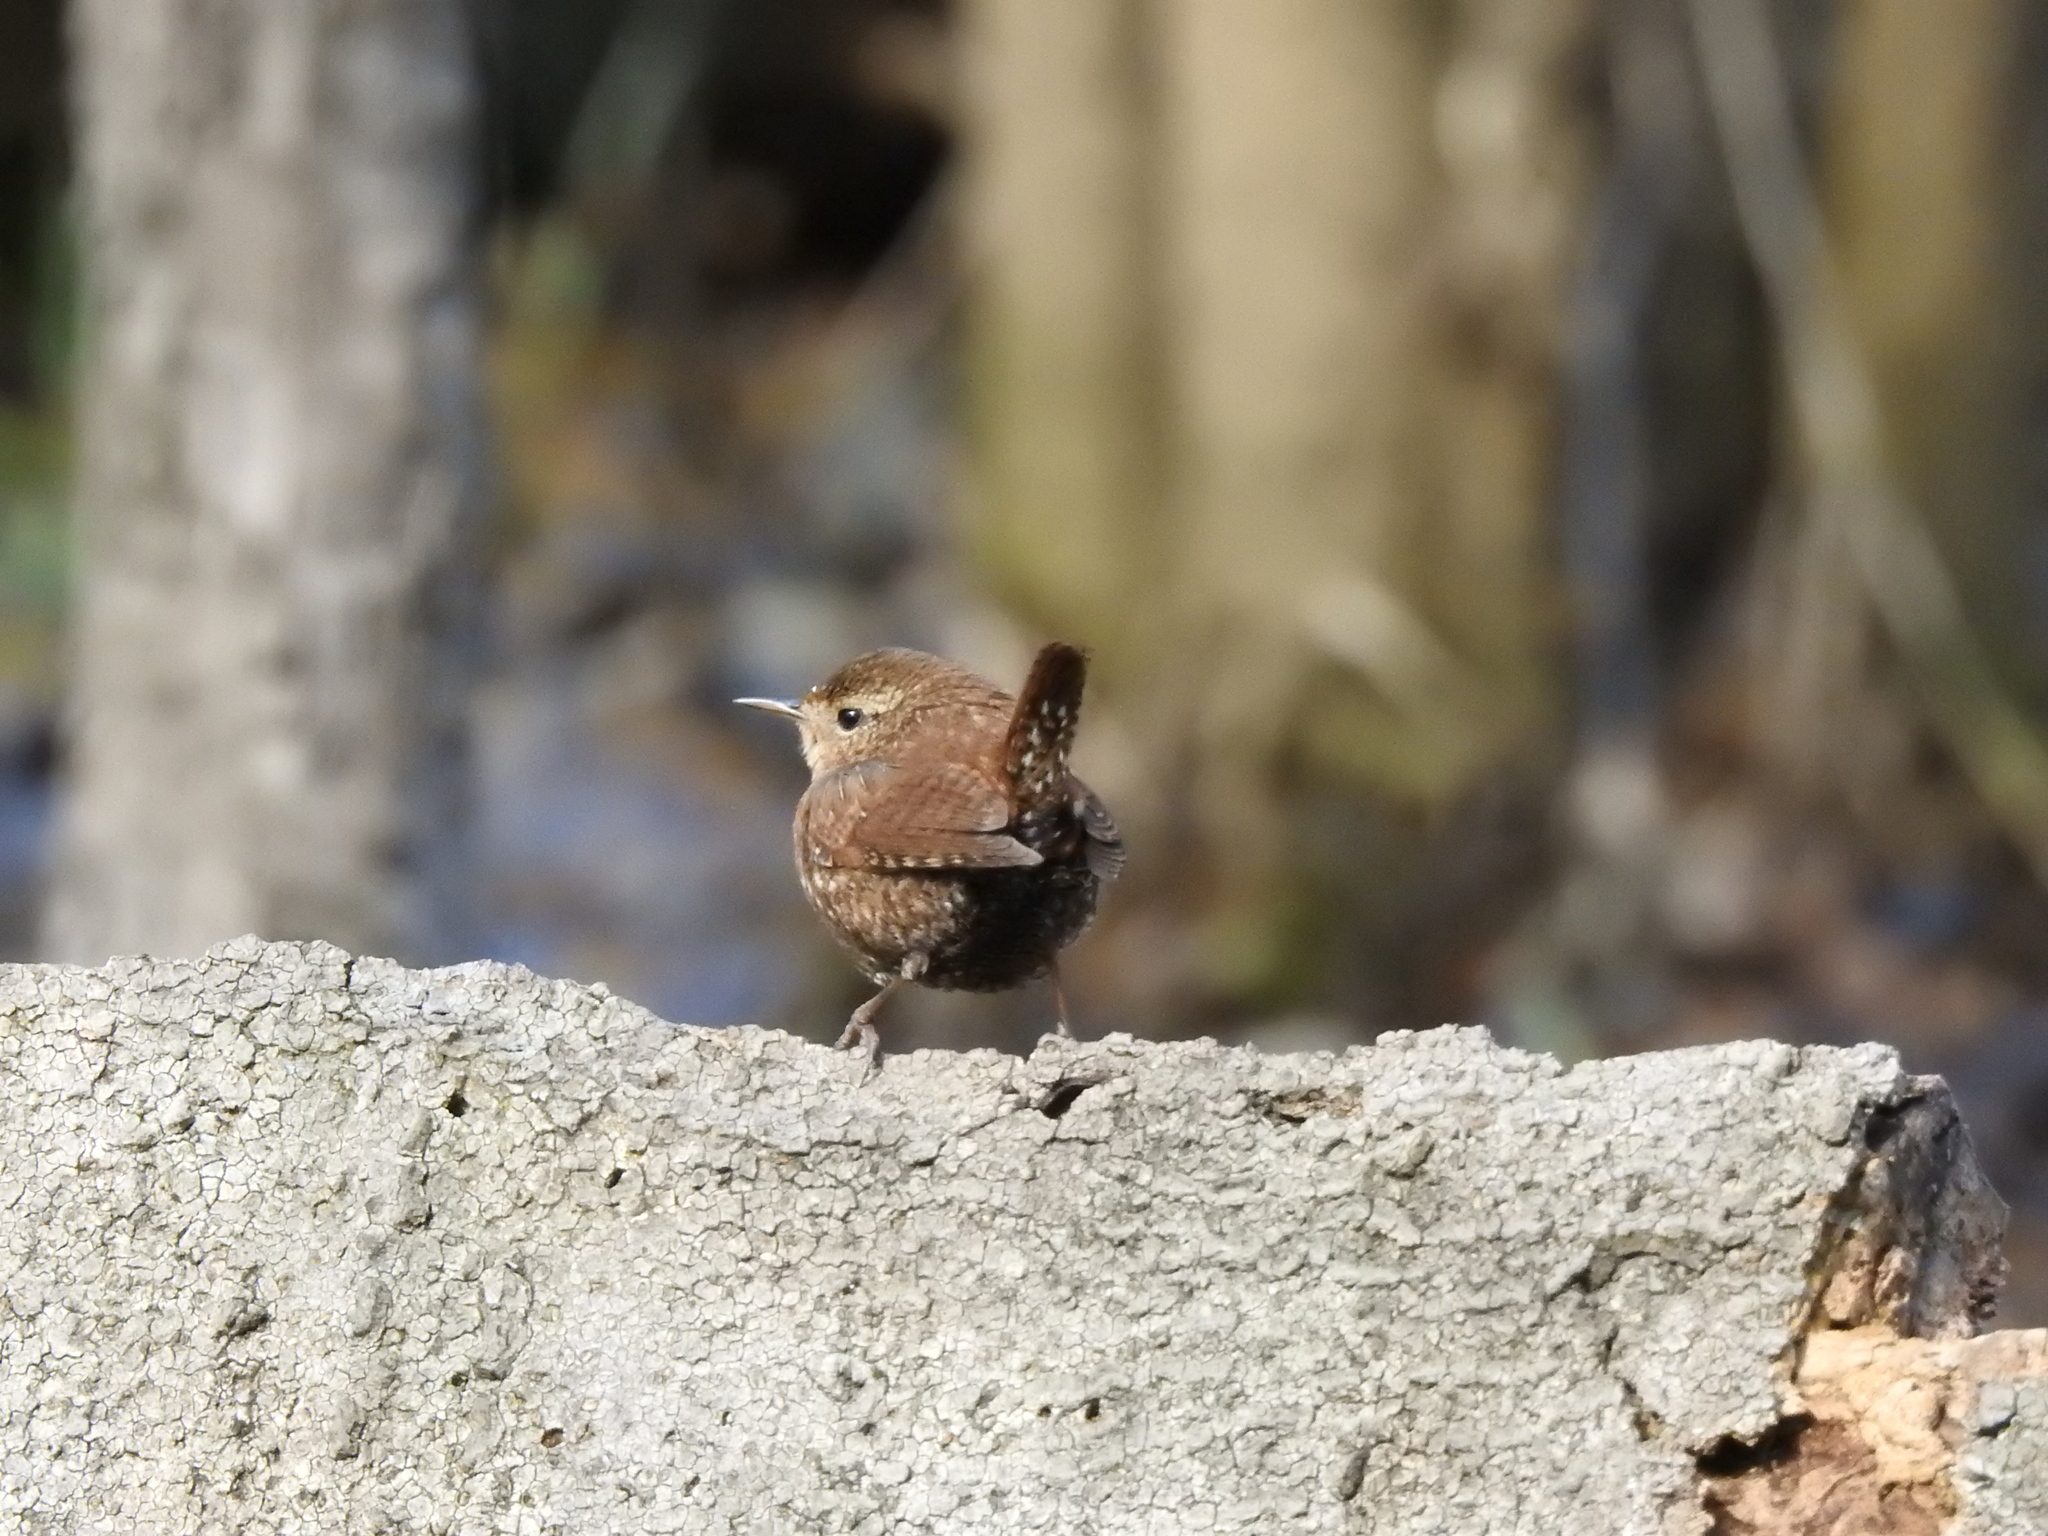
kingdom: Animalia
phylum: Chordata
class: Aves
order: Passeriformes
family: Troglodytidae
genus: Troglodytes
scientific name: Troglodytes hiemalis
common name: Winter wren
